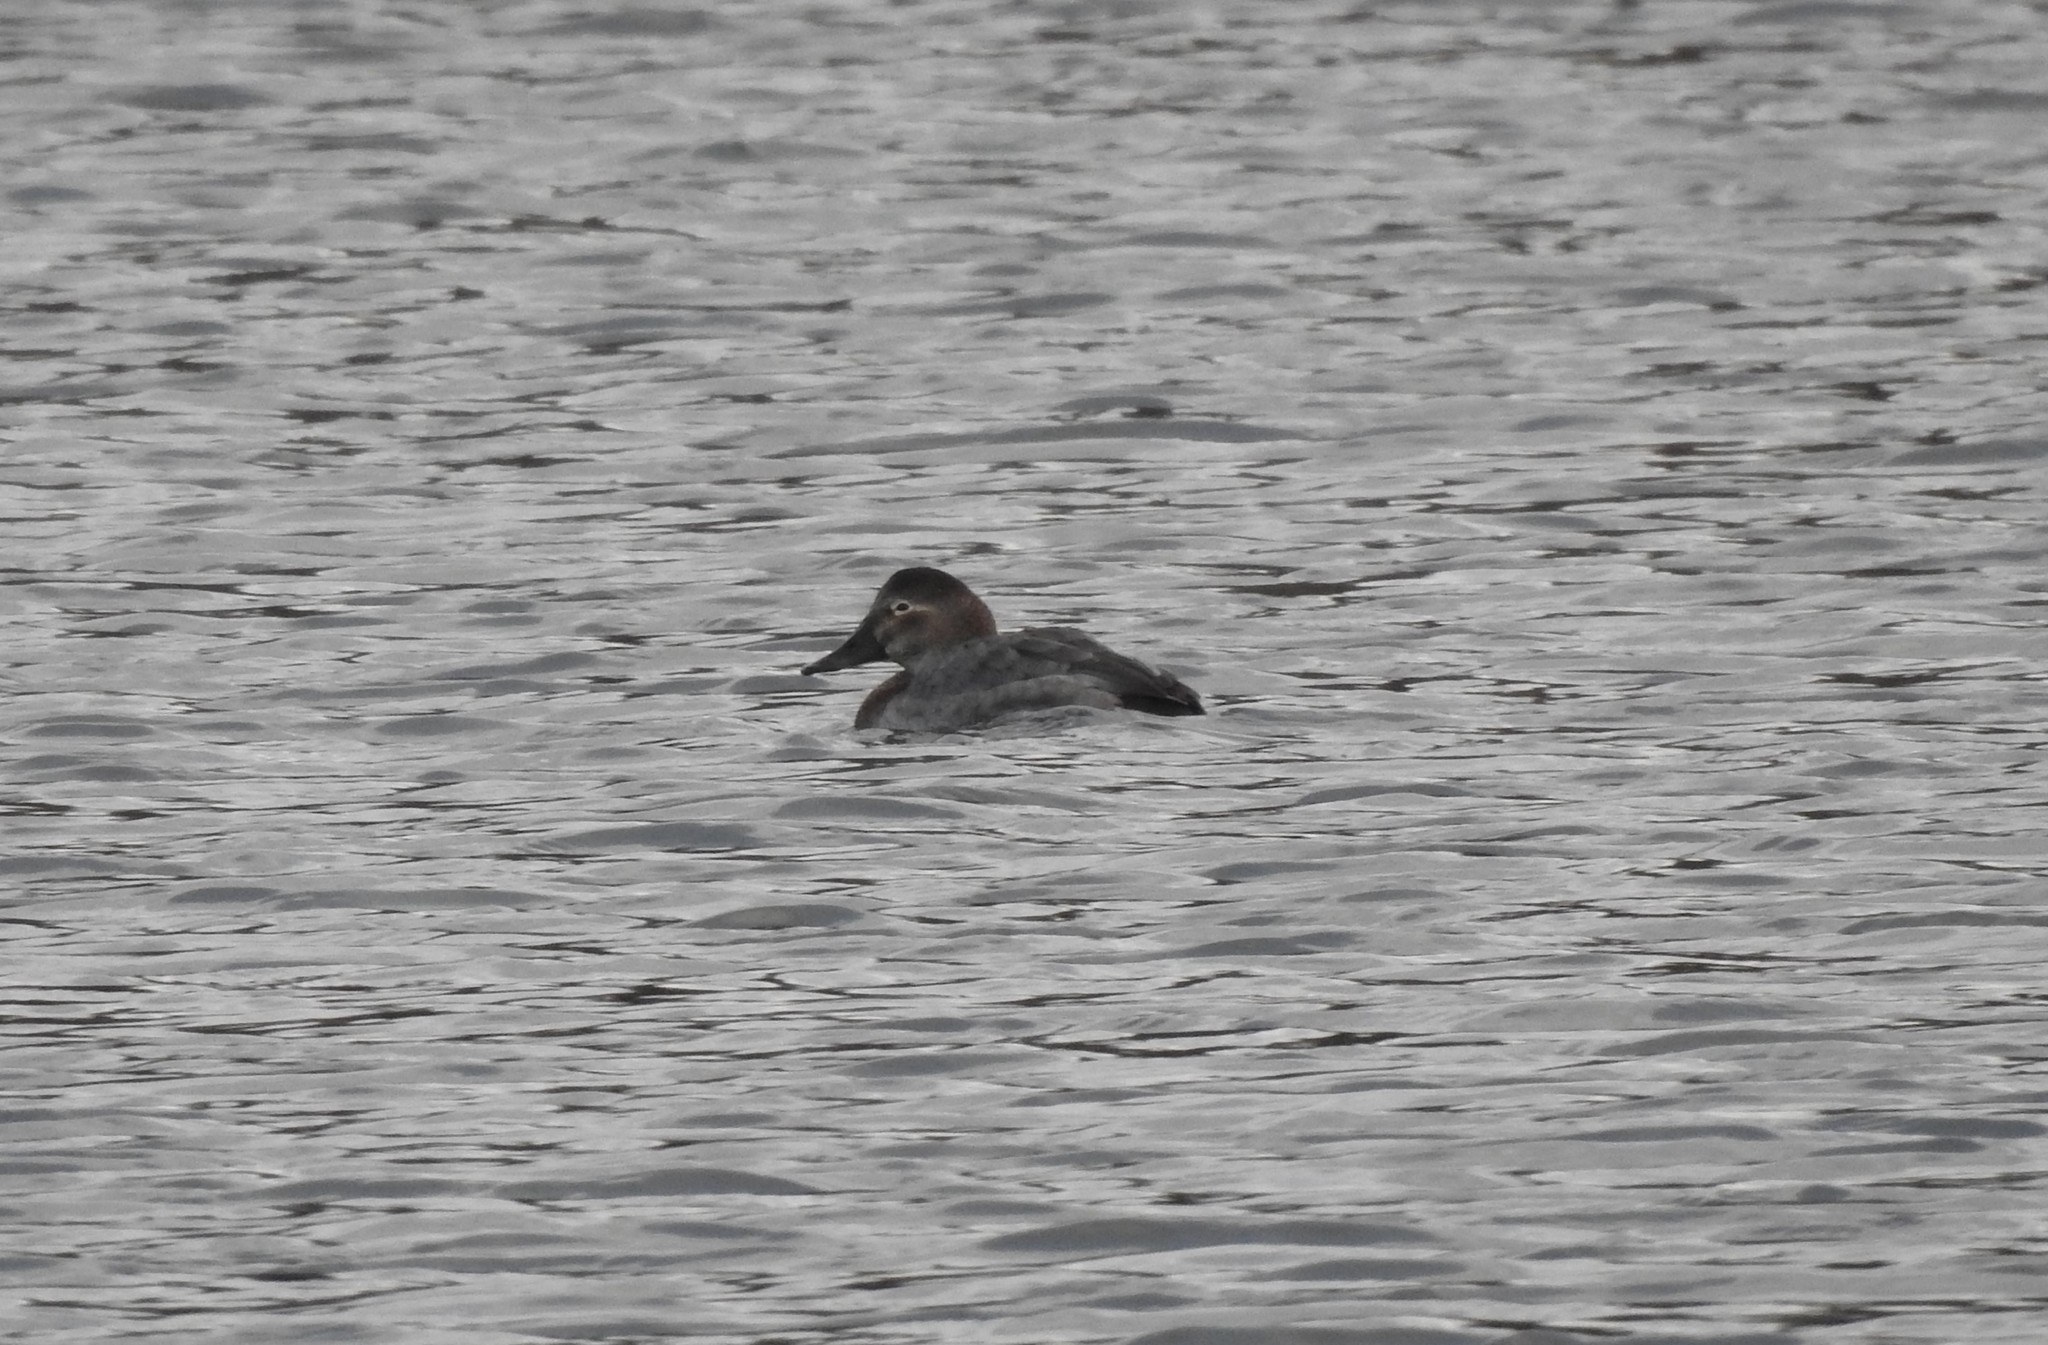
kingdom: Animalia
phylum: Chordata
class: Aves
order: Anseriformes
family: Anatidae
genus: Aythya
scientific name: Aythya ferina
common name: Common pochard
